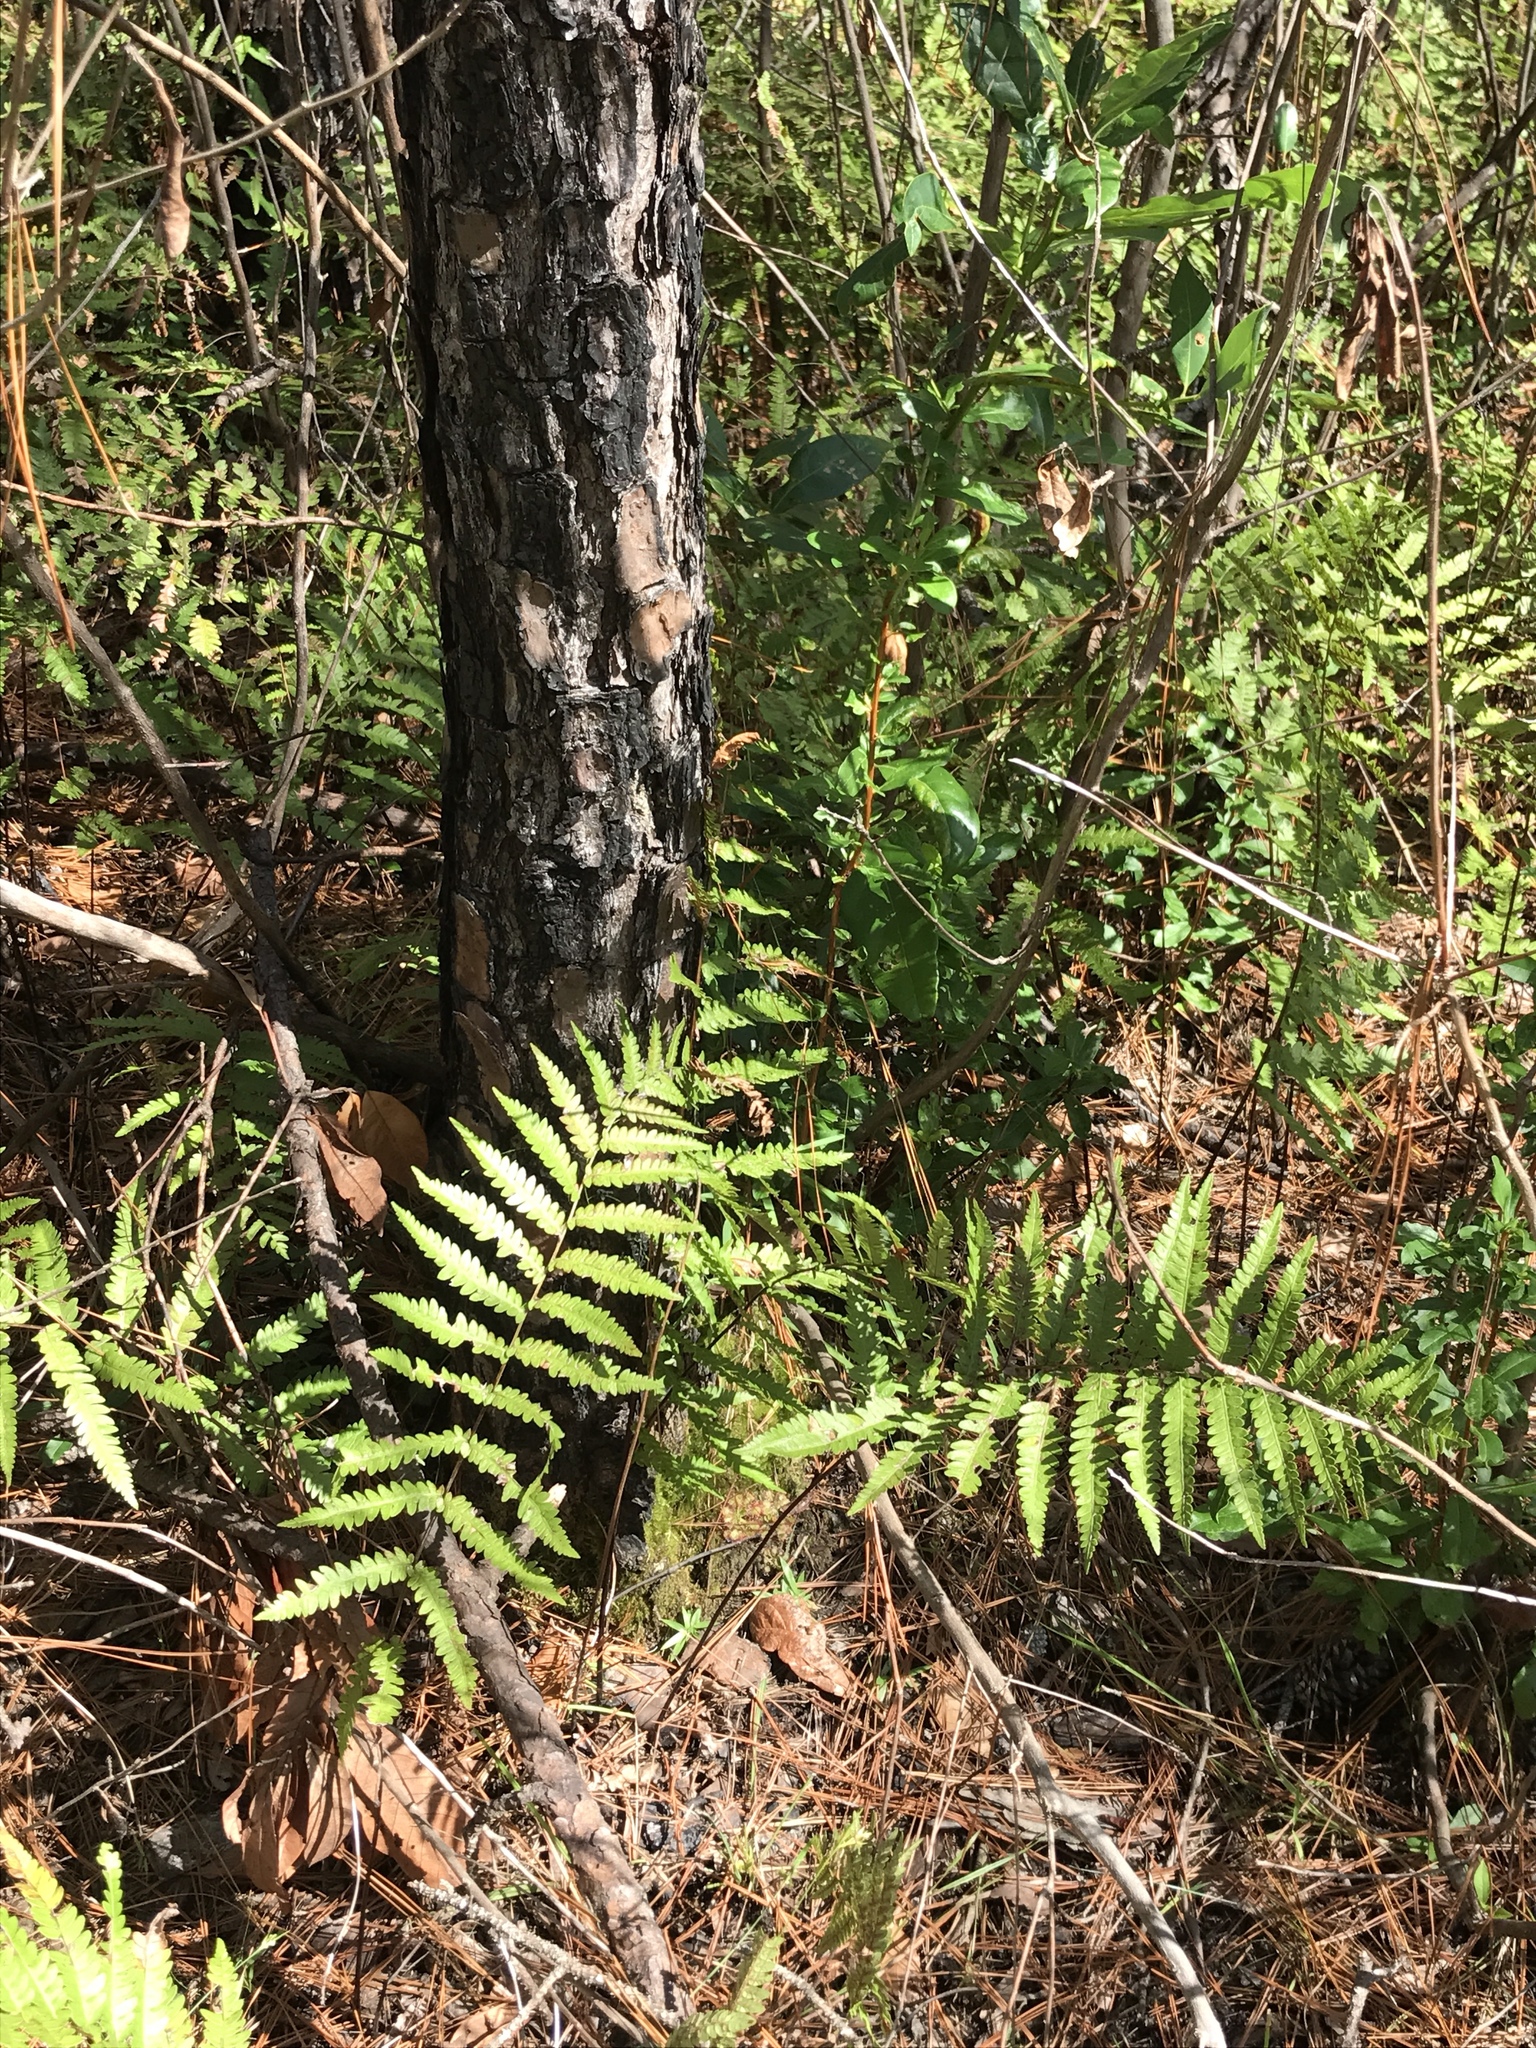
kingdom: Plantae
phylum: Tracheophyta
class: Polypodiopsida
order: Polypodiales
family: Blechnaceae
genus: Anchistea
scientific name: Anchistea virginica
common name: Virginia chain fern
